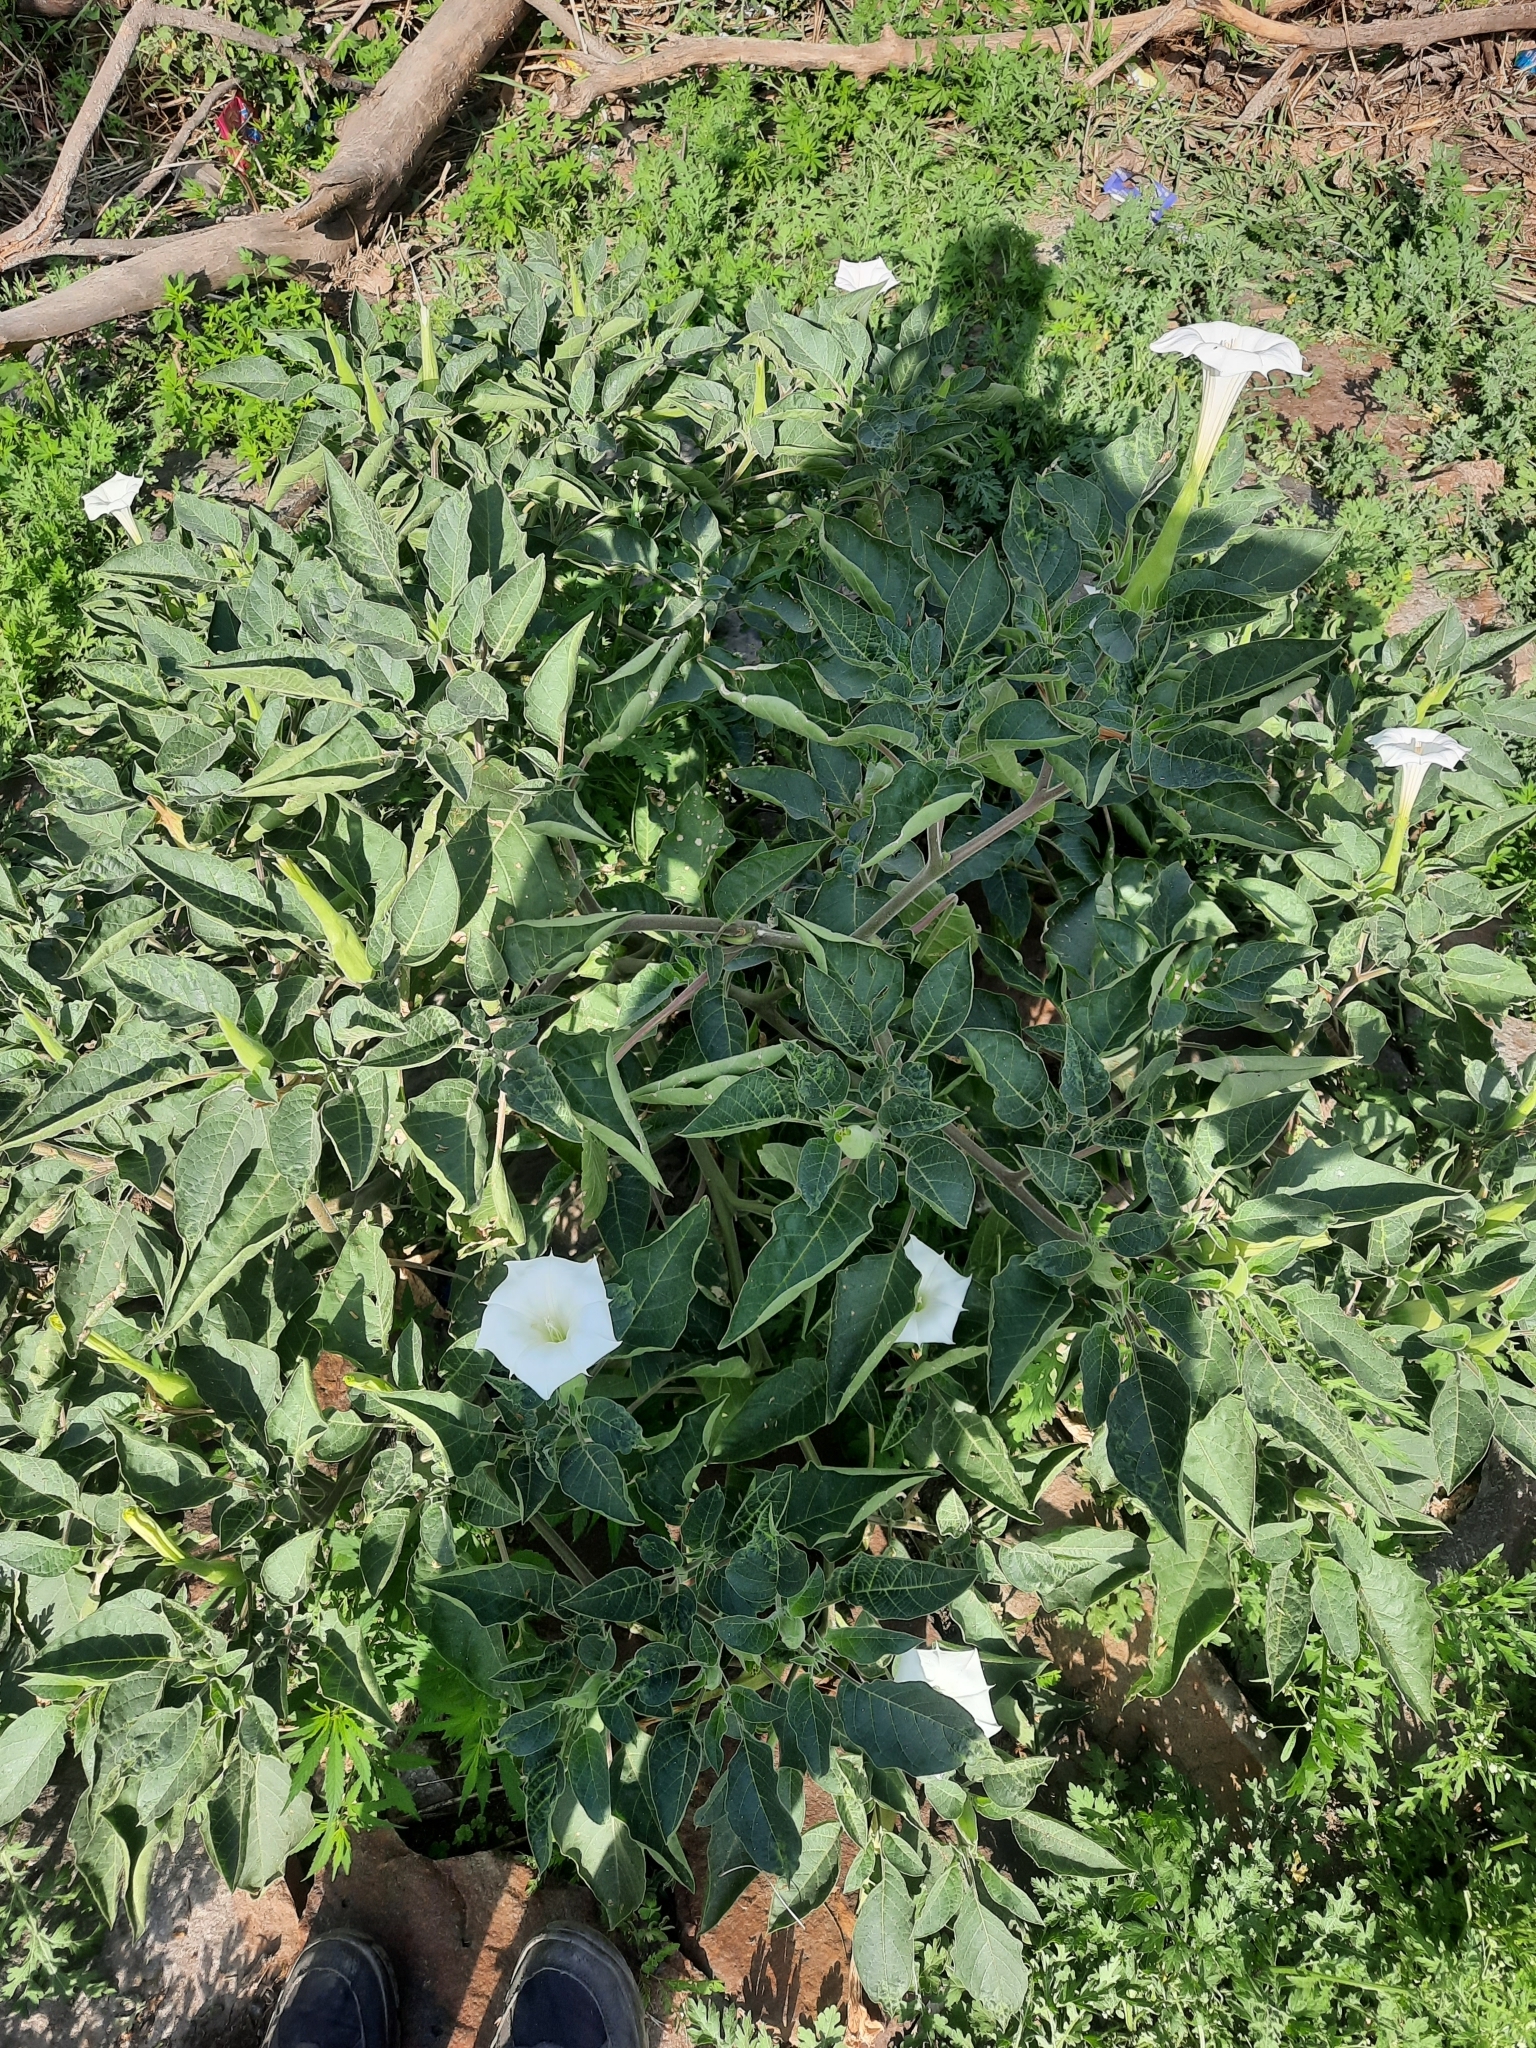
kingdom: Plantae
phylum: Tracheophyta
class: Magnoliopsida
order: Solanales
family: Solanaceae
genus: Datura
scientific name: Datura innoxia
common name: Downy thorn-apple
